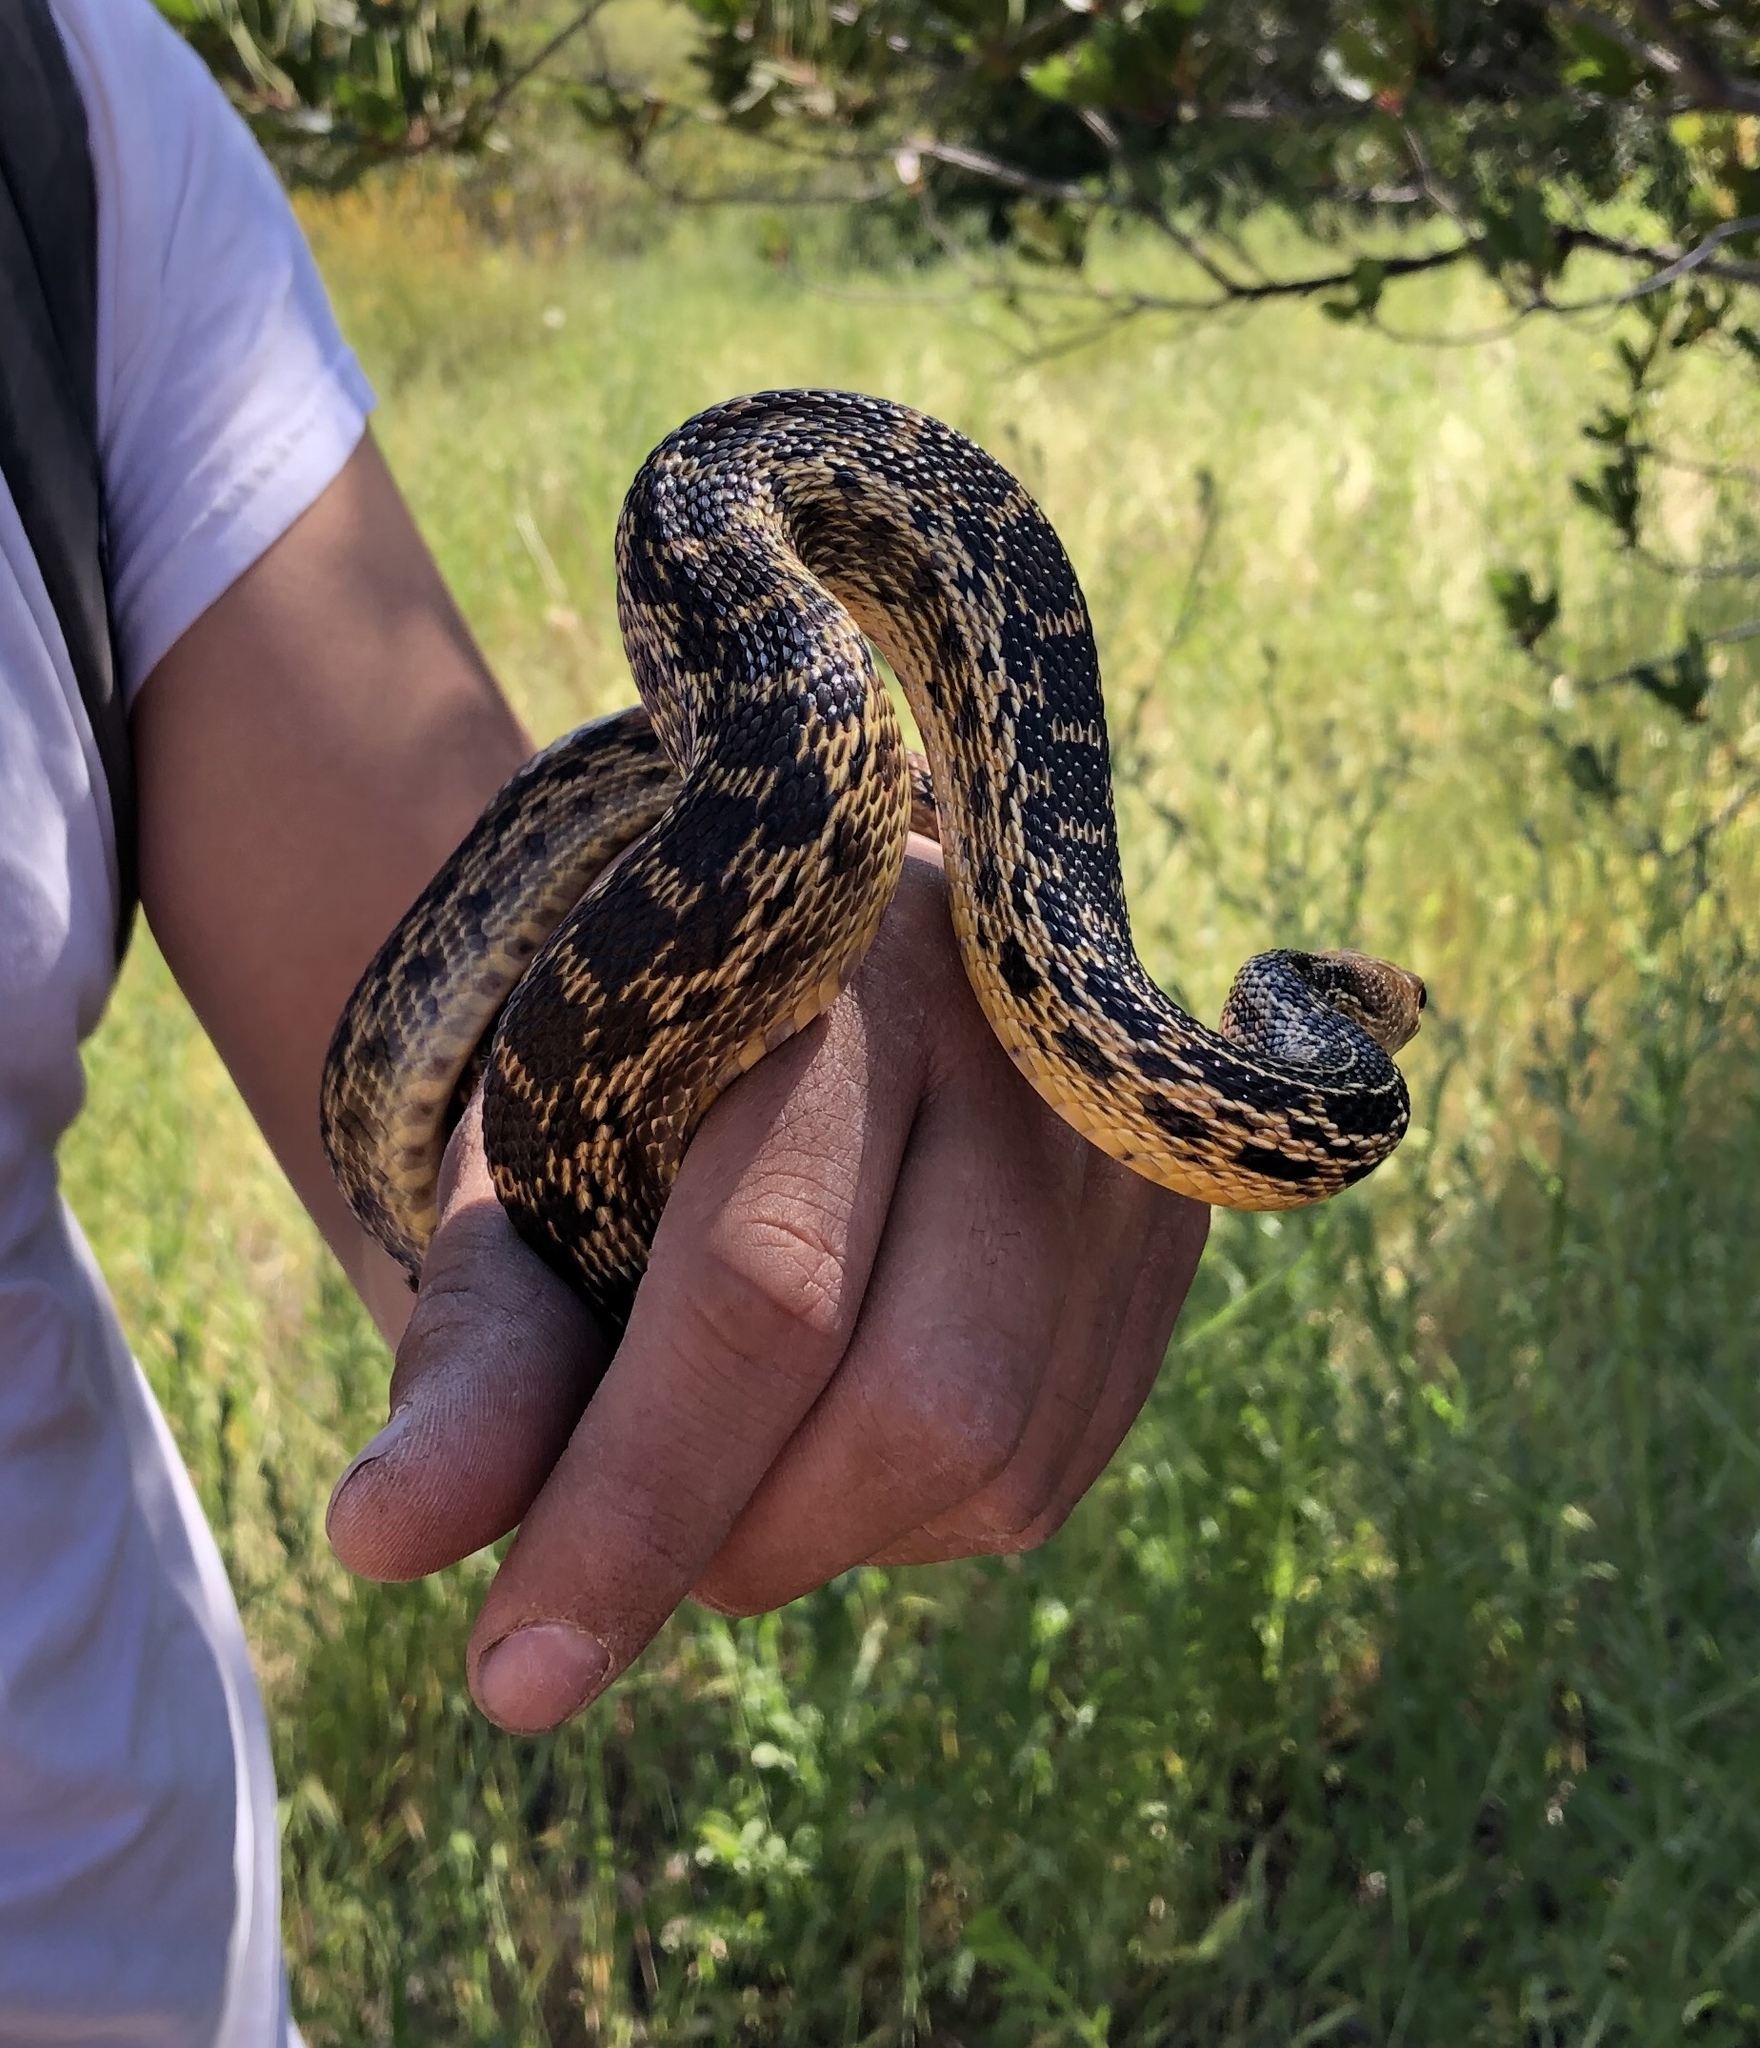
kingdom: Animalia
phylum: Chordata
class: Squamata
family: Colubridae
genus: Pituophis
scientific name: Pituophis catenifer
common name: Gopher snake
